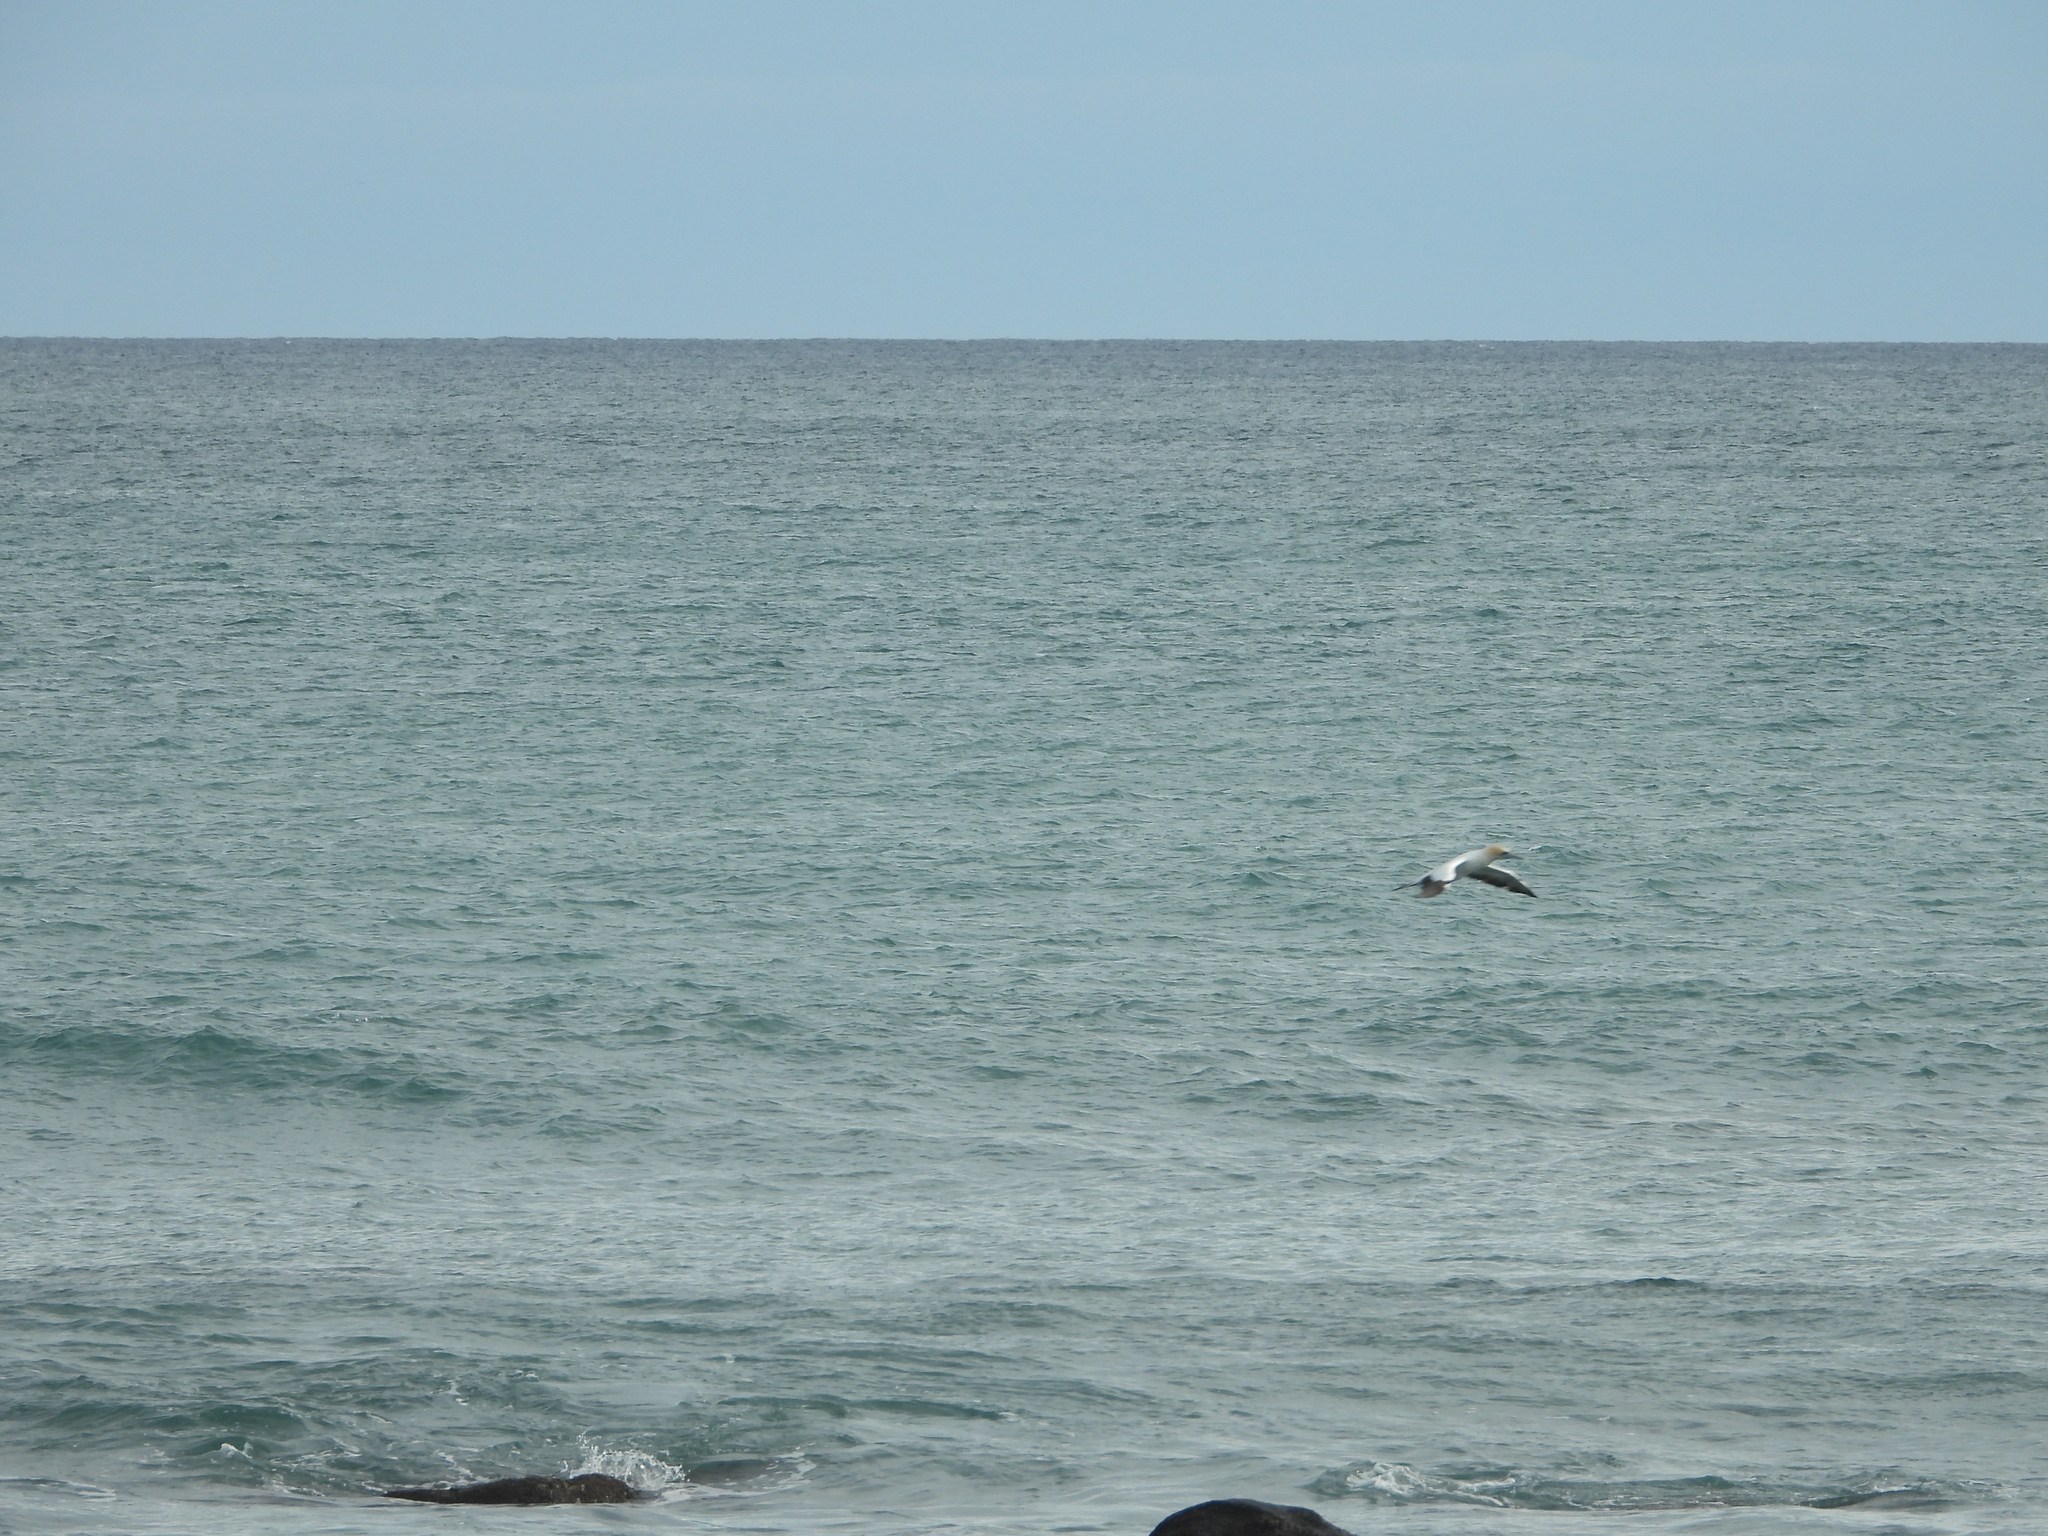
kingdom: Animalia
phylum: Chordata
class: Aves
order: Suliformes
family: Sulidae
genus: Morus
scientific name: Morus serrator
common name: Australasian gannet
